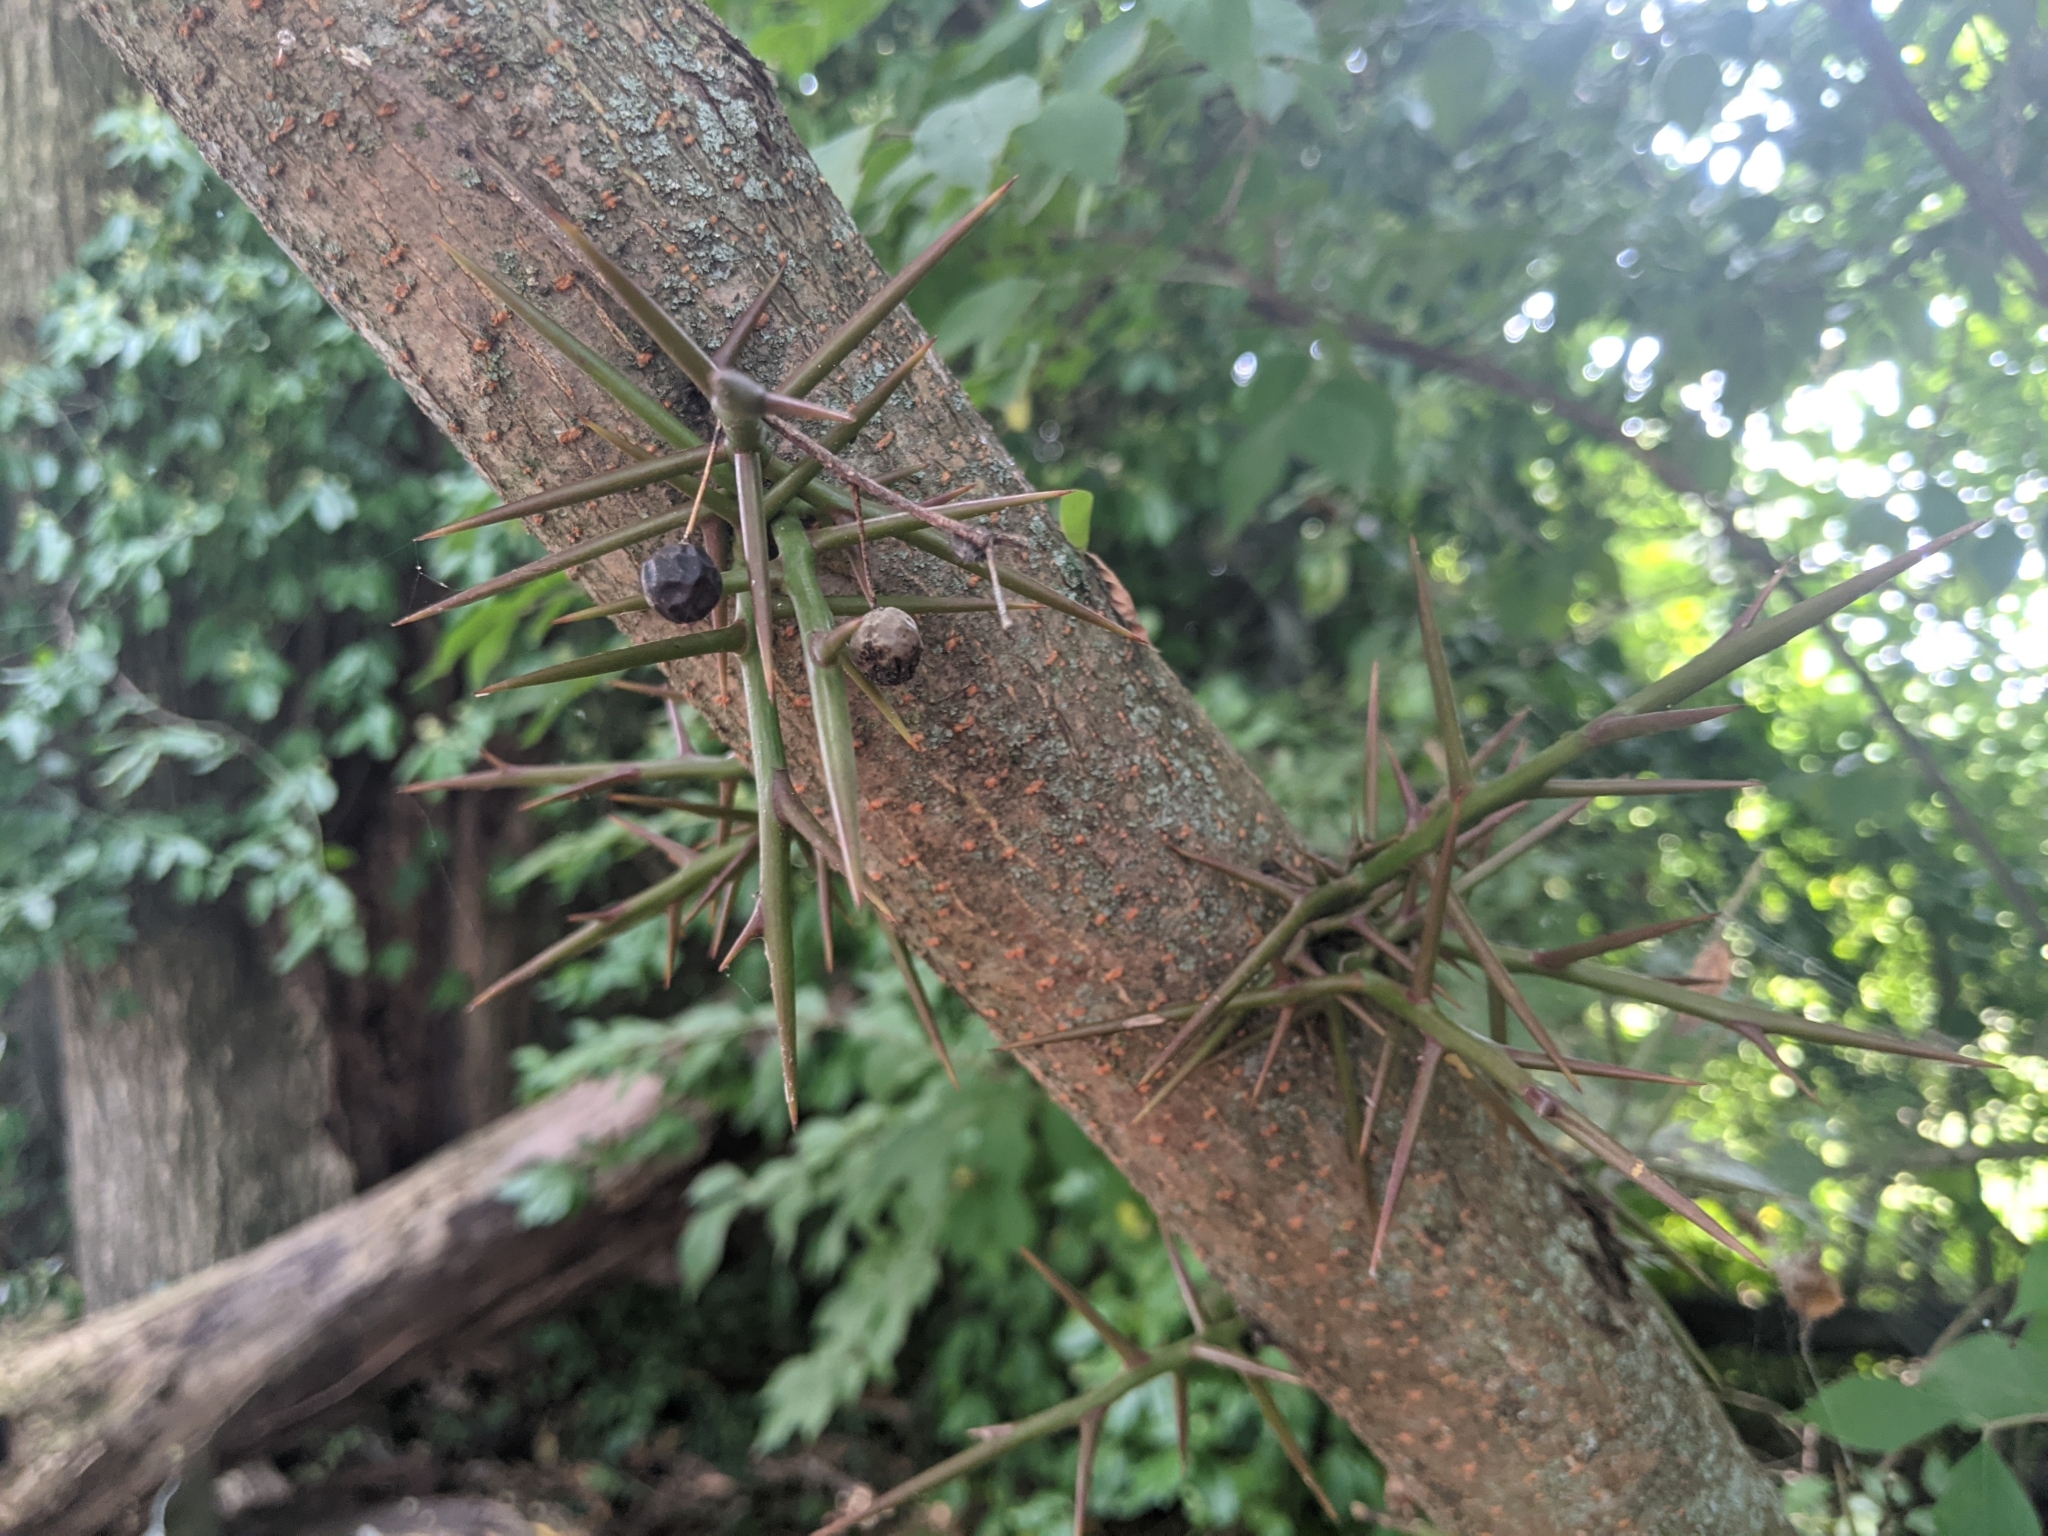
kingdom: Plantae
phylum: Tracheophyta
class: Magnoliopsida
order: Fabales
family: Fabaceae
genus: Gleditsia
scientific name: Gleditsia triacanthos
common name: Common honeylocust
